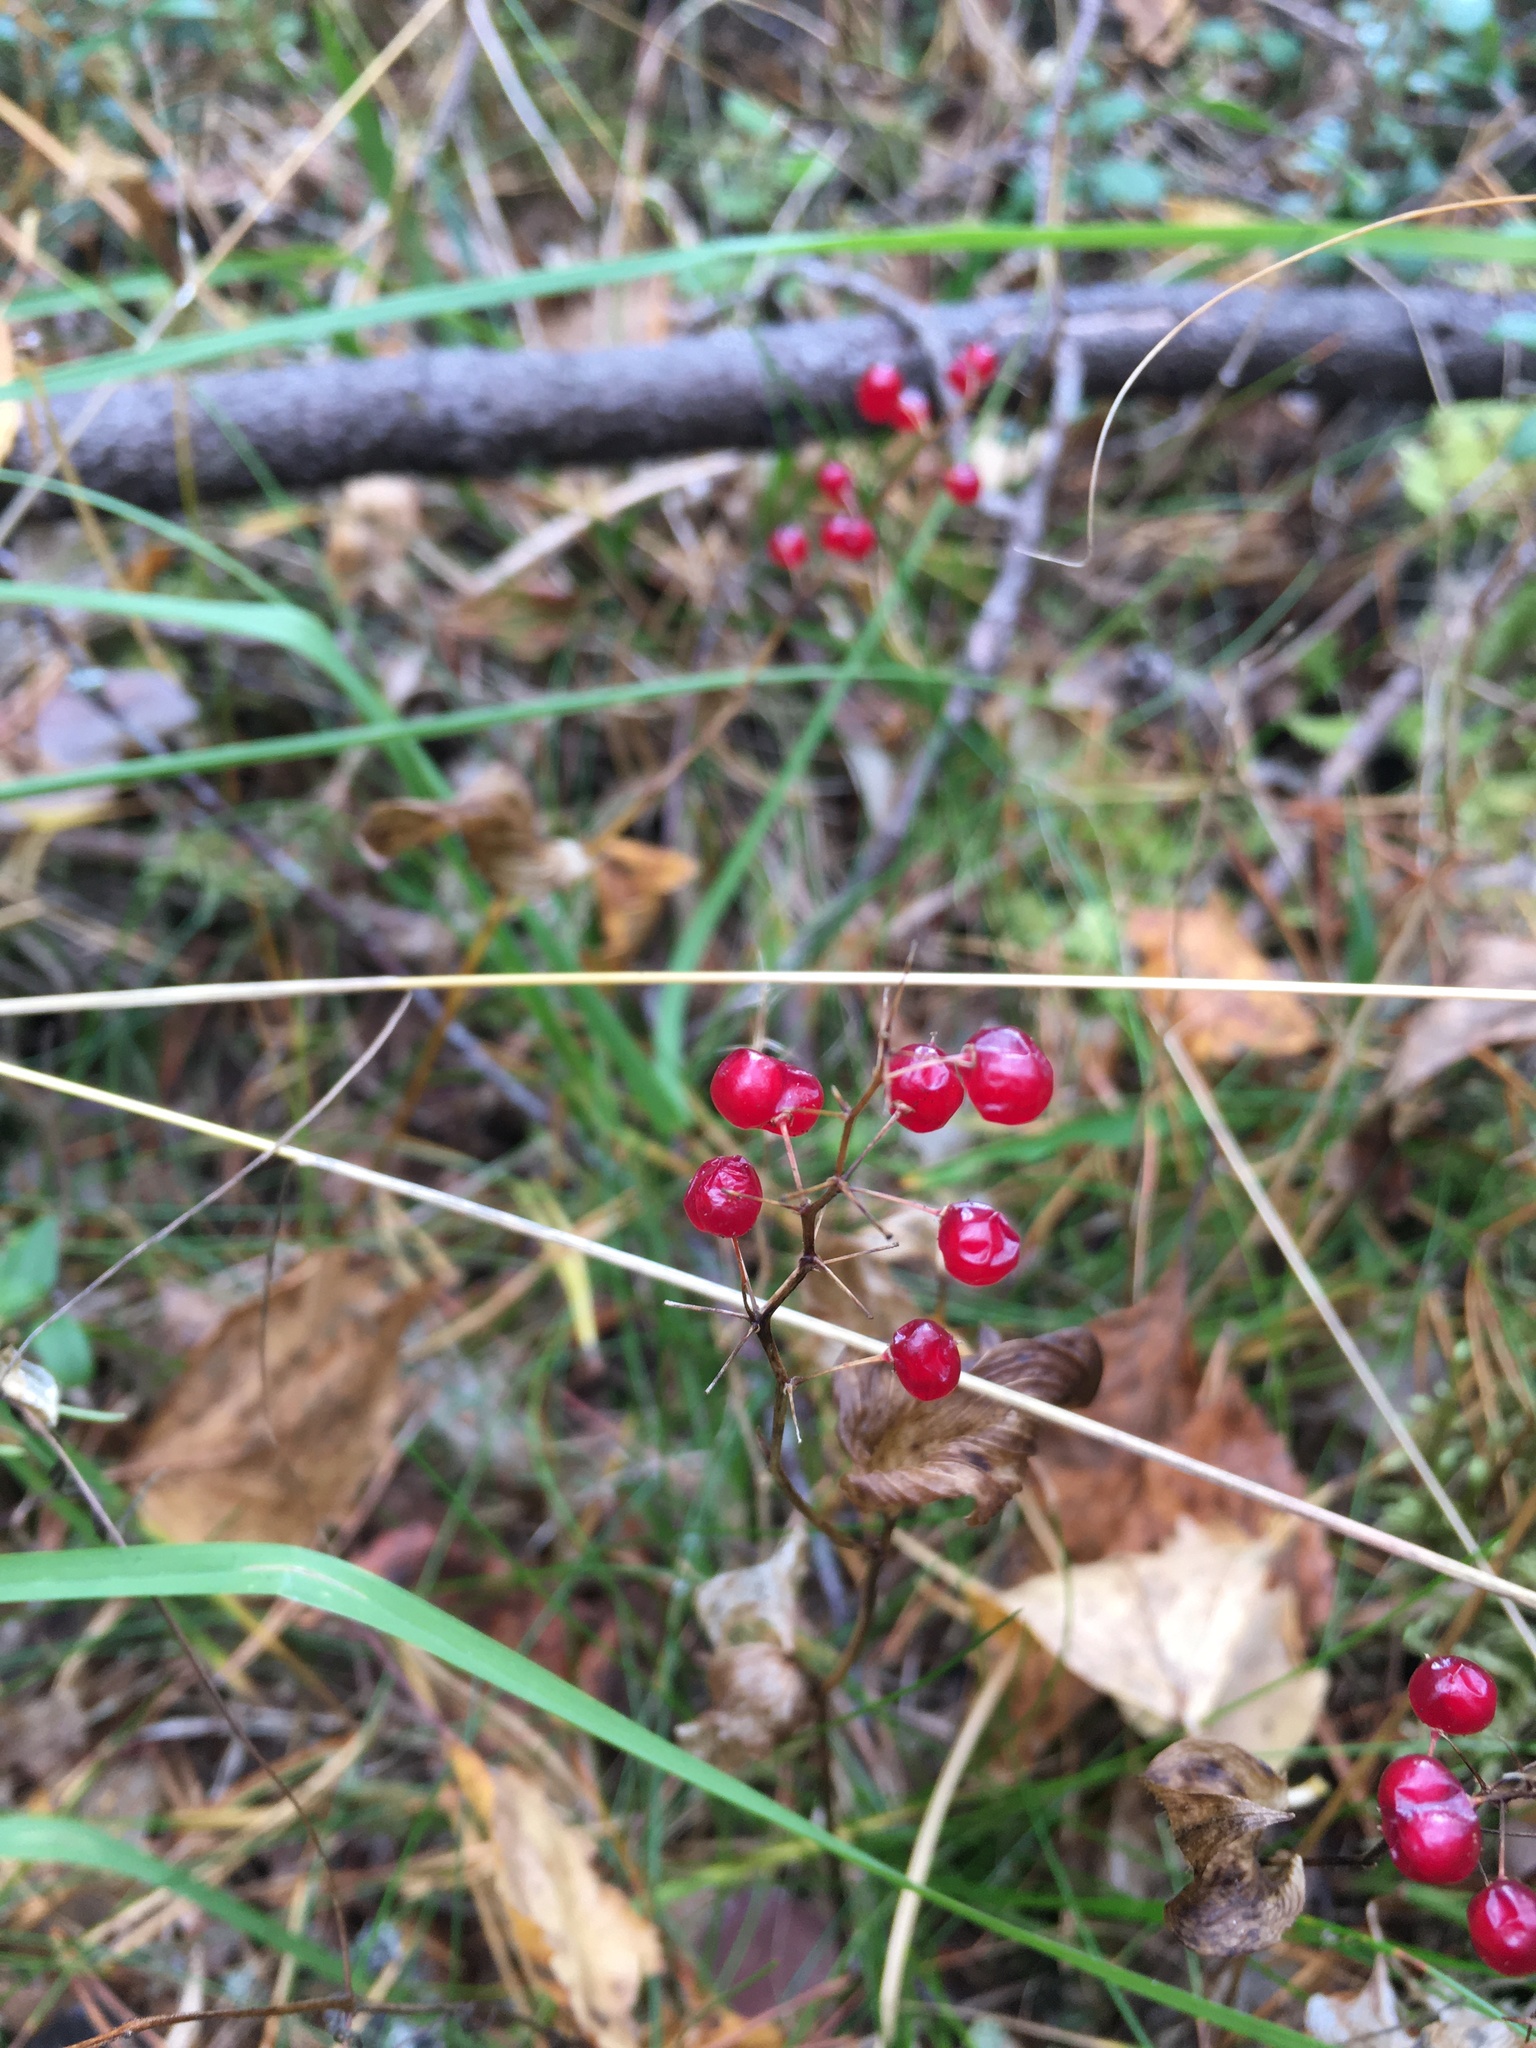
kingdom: Plantae
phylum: Tracheophyta
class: Liliopsida
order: Asparagales
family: Asparagaceae
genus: Maianthemum
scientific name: Maianthemum bifolium
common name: May lily
